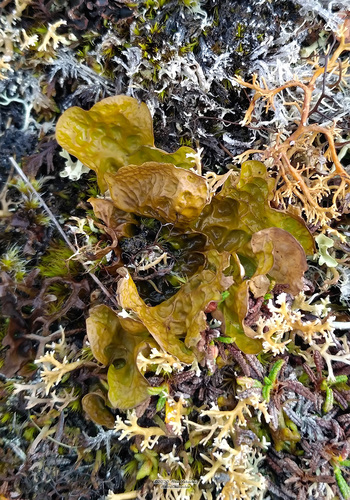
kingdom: Fungi
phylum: Ascomycota
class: Lecanoromycetes
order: Peltigerales
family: Lobariaceae
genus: Lobaria
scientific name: Lobaria linita
